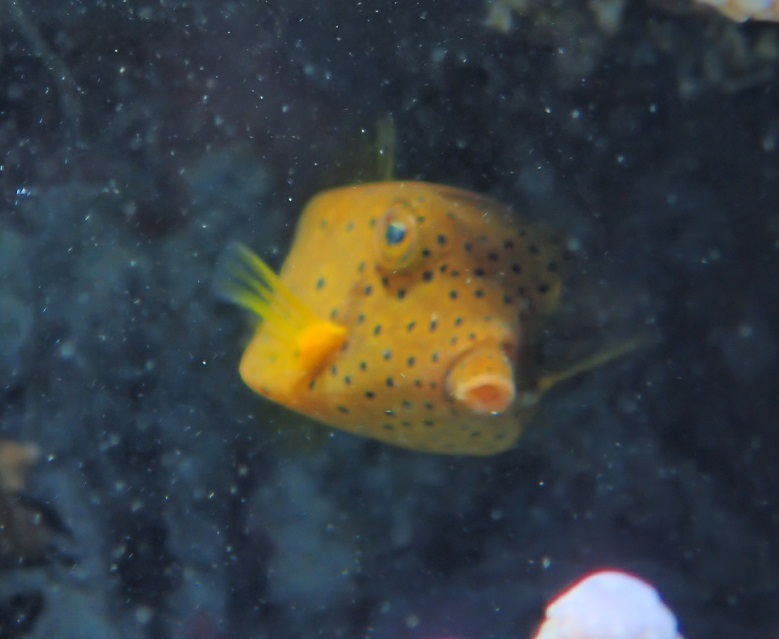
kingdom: Animalia
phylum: Chordata
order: Tetraodontiformes
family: Ostraciidae
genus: Ostracion
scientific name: Ostracion cubicus
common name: Cube trunkfish
